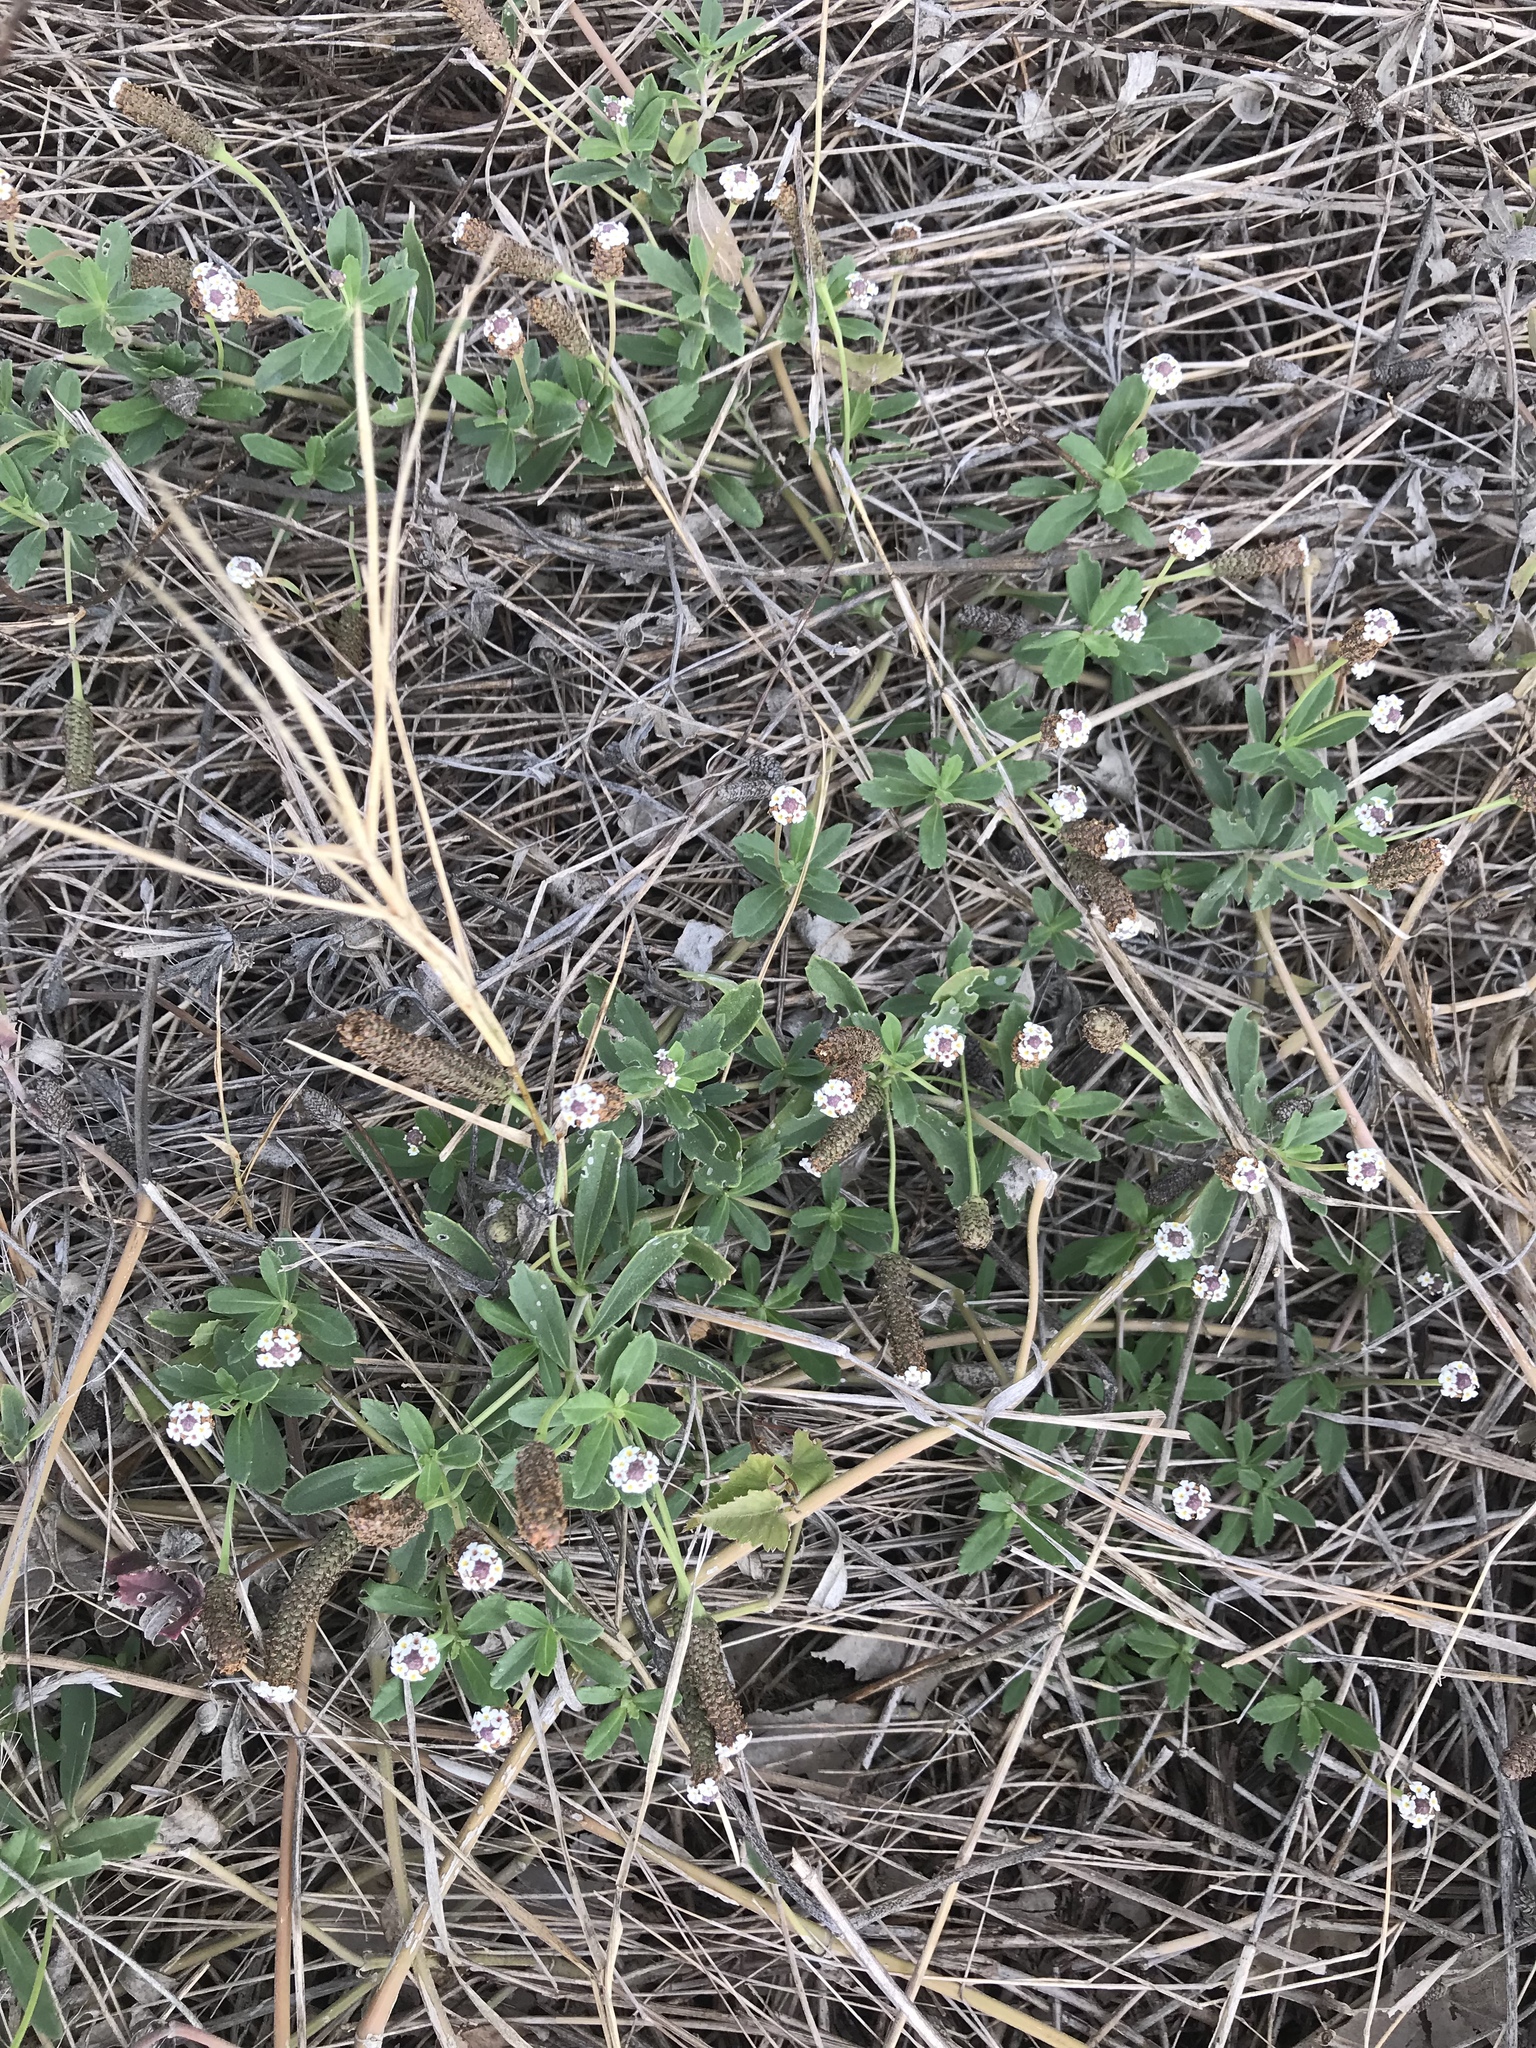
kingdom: Plantae
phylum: Tracheophyta
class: Magnoliopsida
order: Lamiales
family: Verbenaceae
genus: Phyla
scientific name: Phyla nodiflora
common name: Frogfruit
